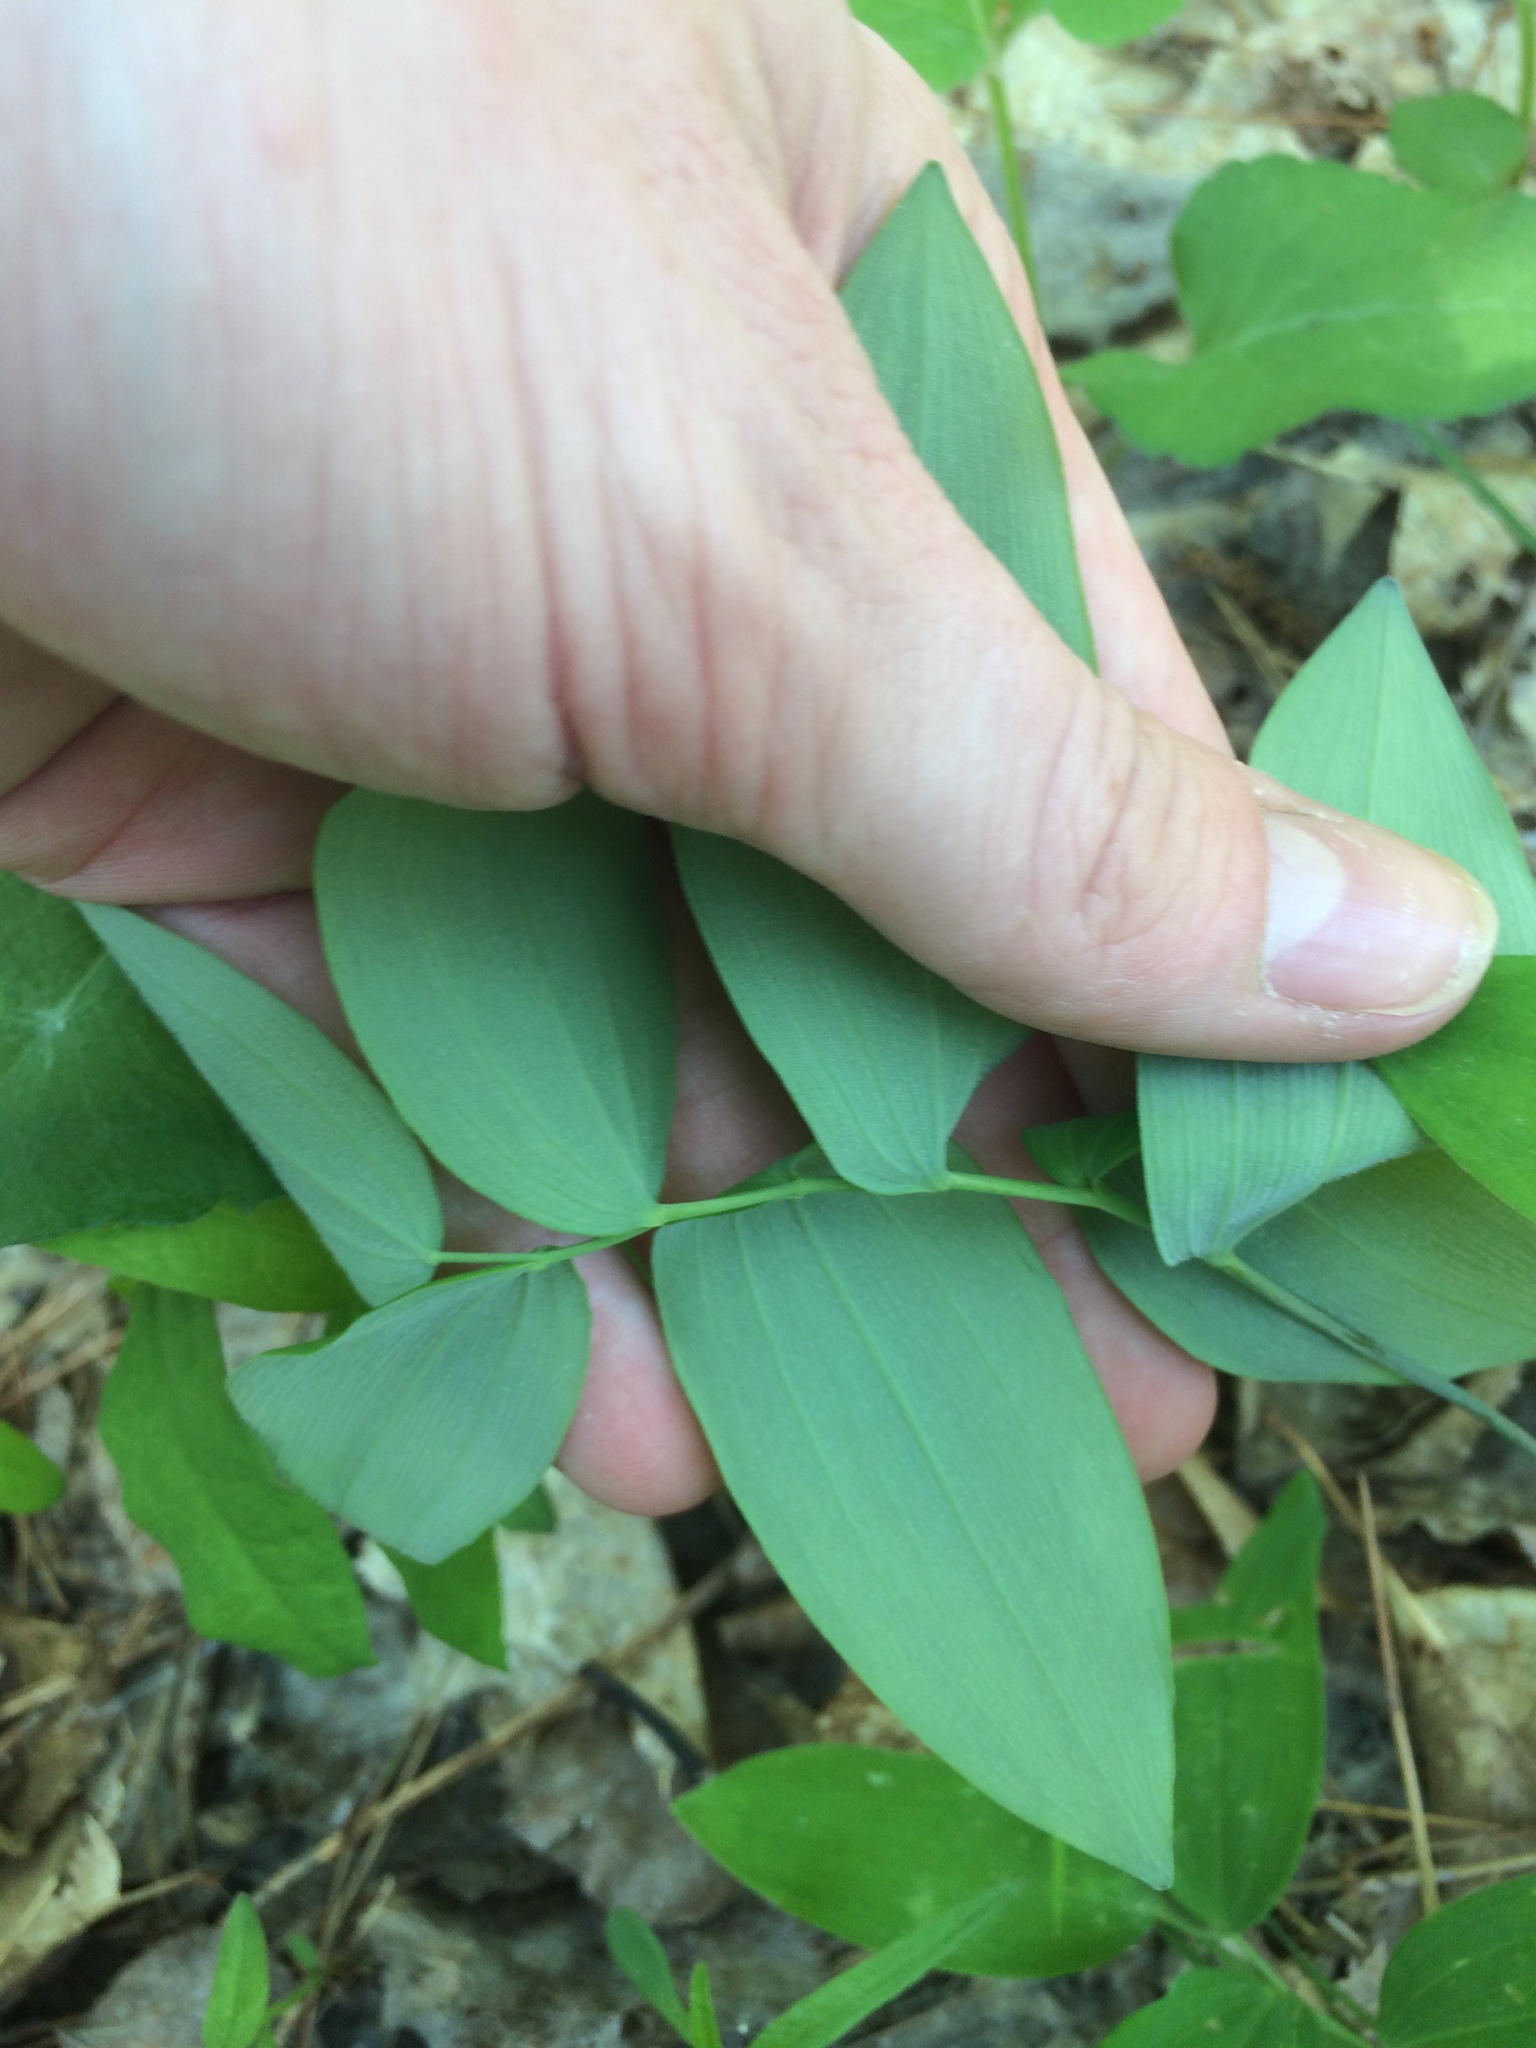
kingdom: Plantae
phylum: Tracheophyta
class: Liliopsida
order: Asparagales
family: Asparagaceae
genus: Polygonatum
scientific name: Polygonatum pubescens
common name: Downy solomon's seal
